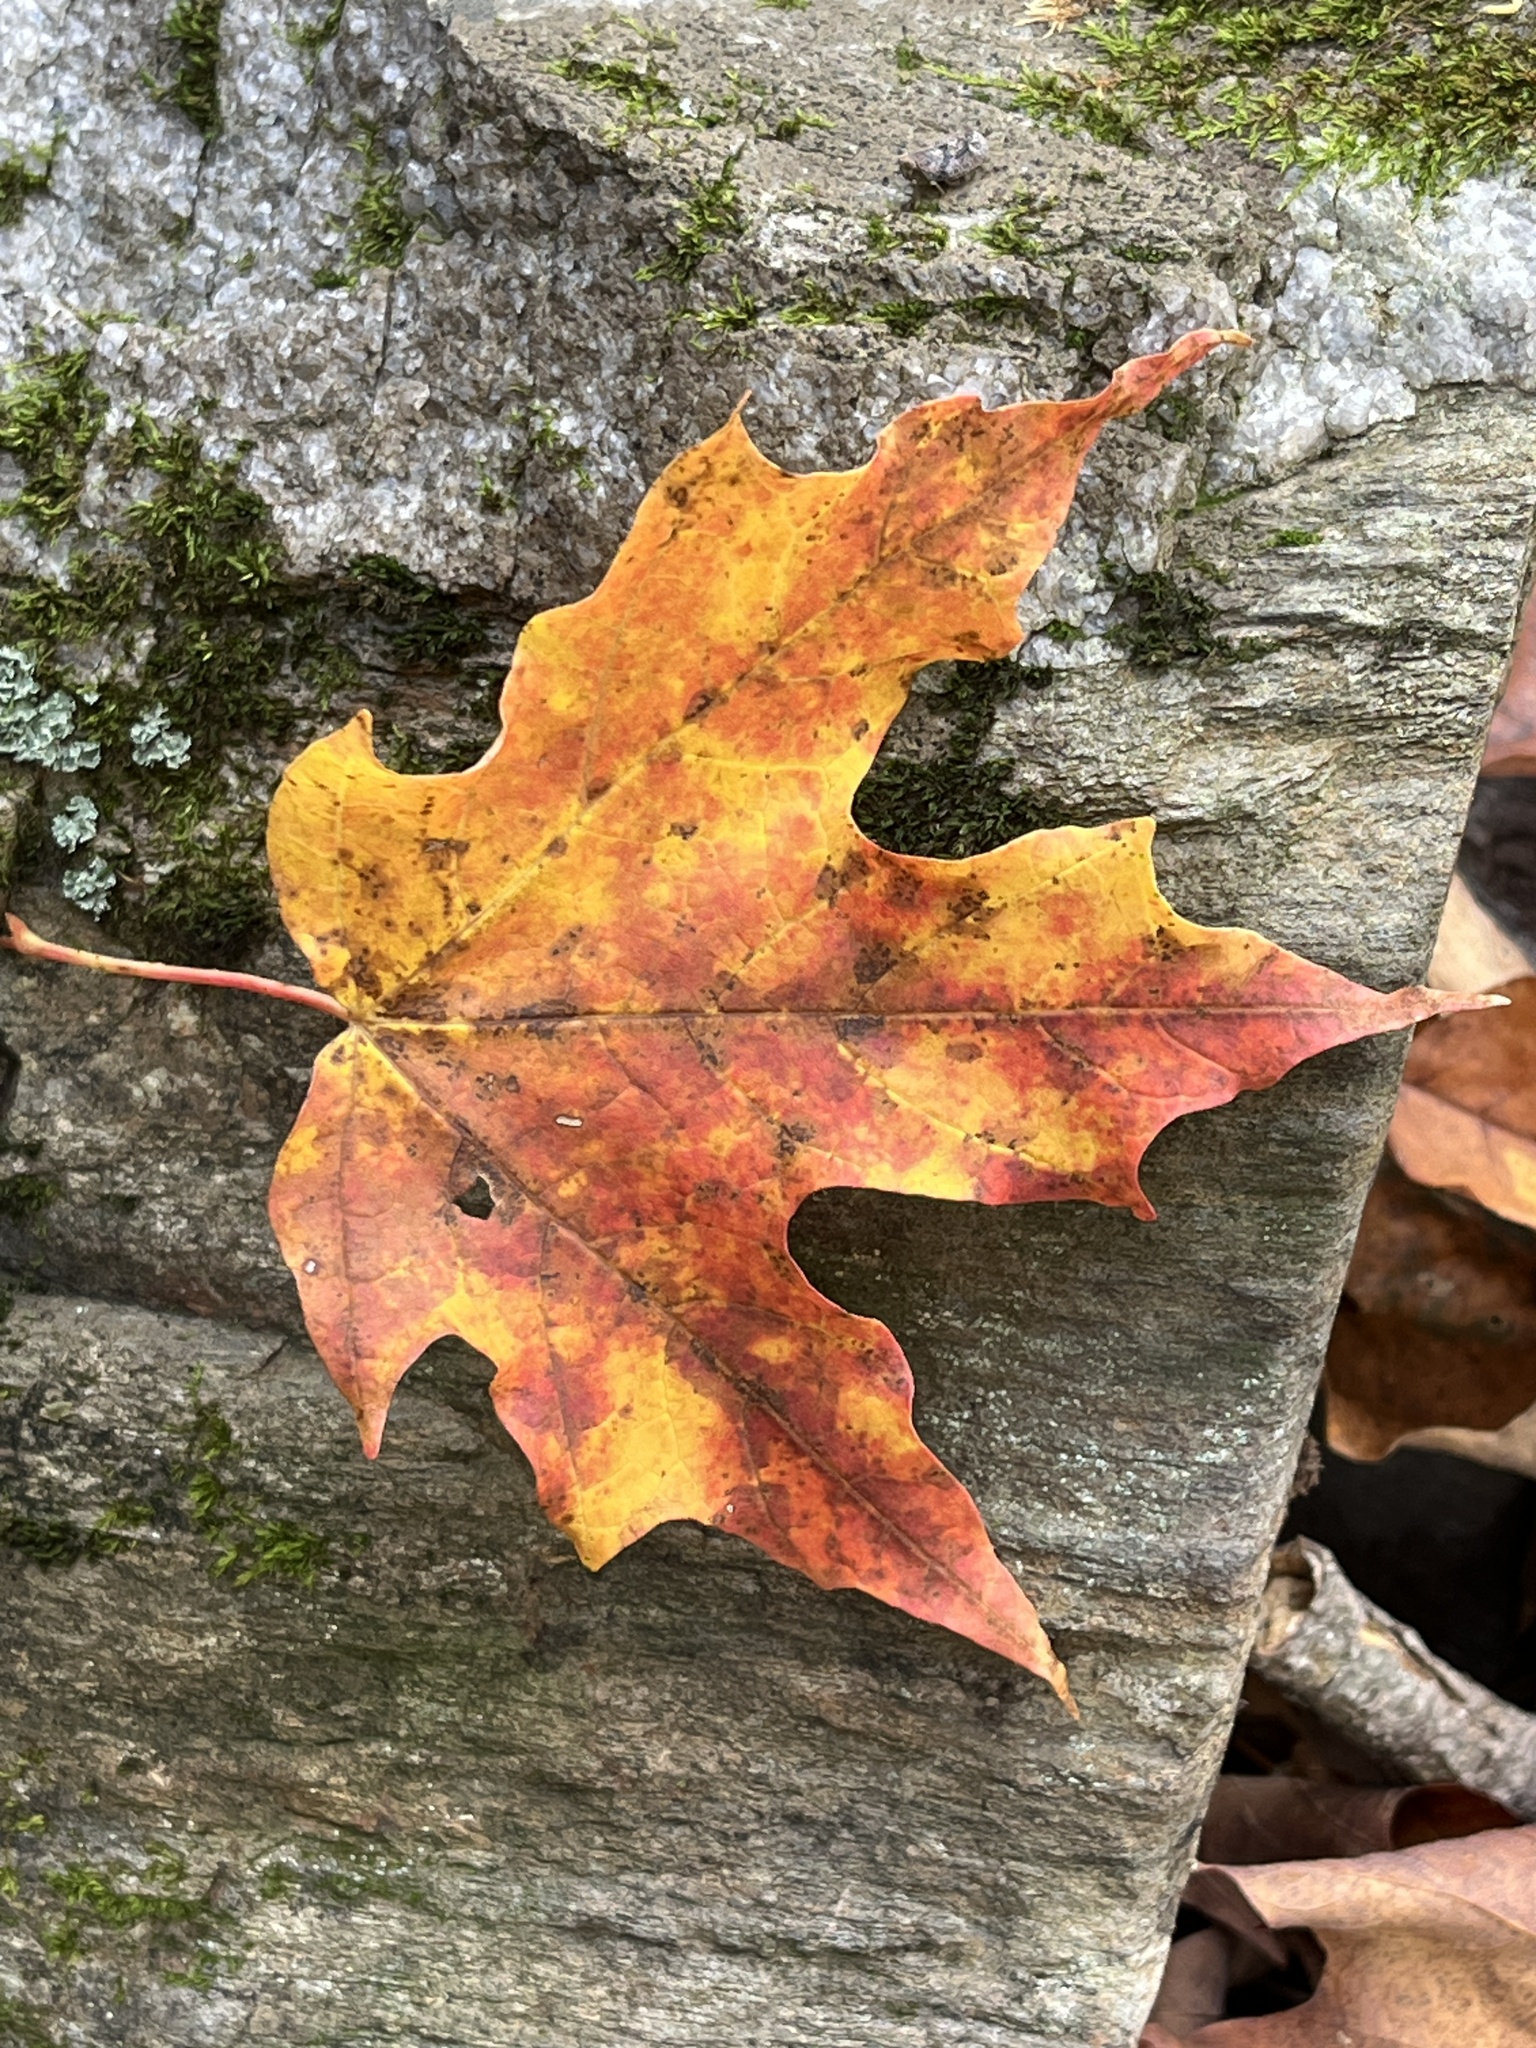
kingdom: Plantae
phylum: Tracheophyta
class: Magnoliopsida
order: Sapindales
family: Sapindaceae
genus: Acer
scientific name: Acer saccharum
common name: Sugar maple
